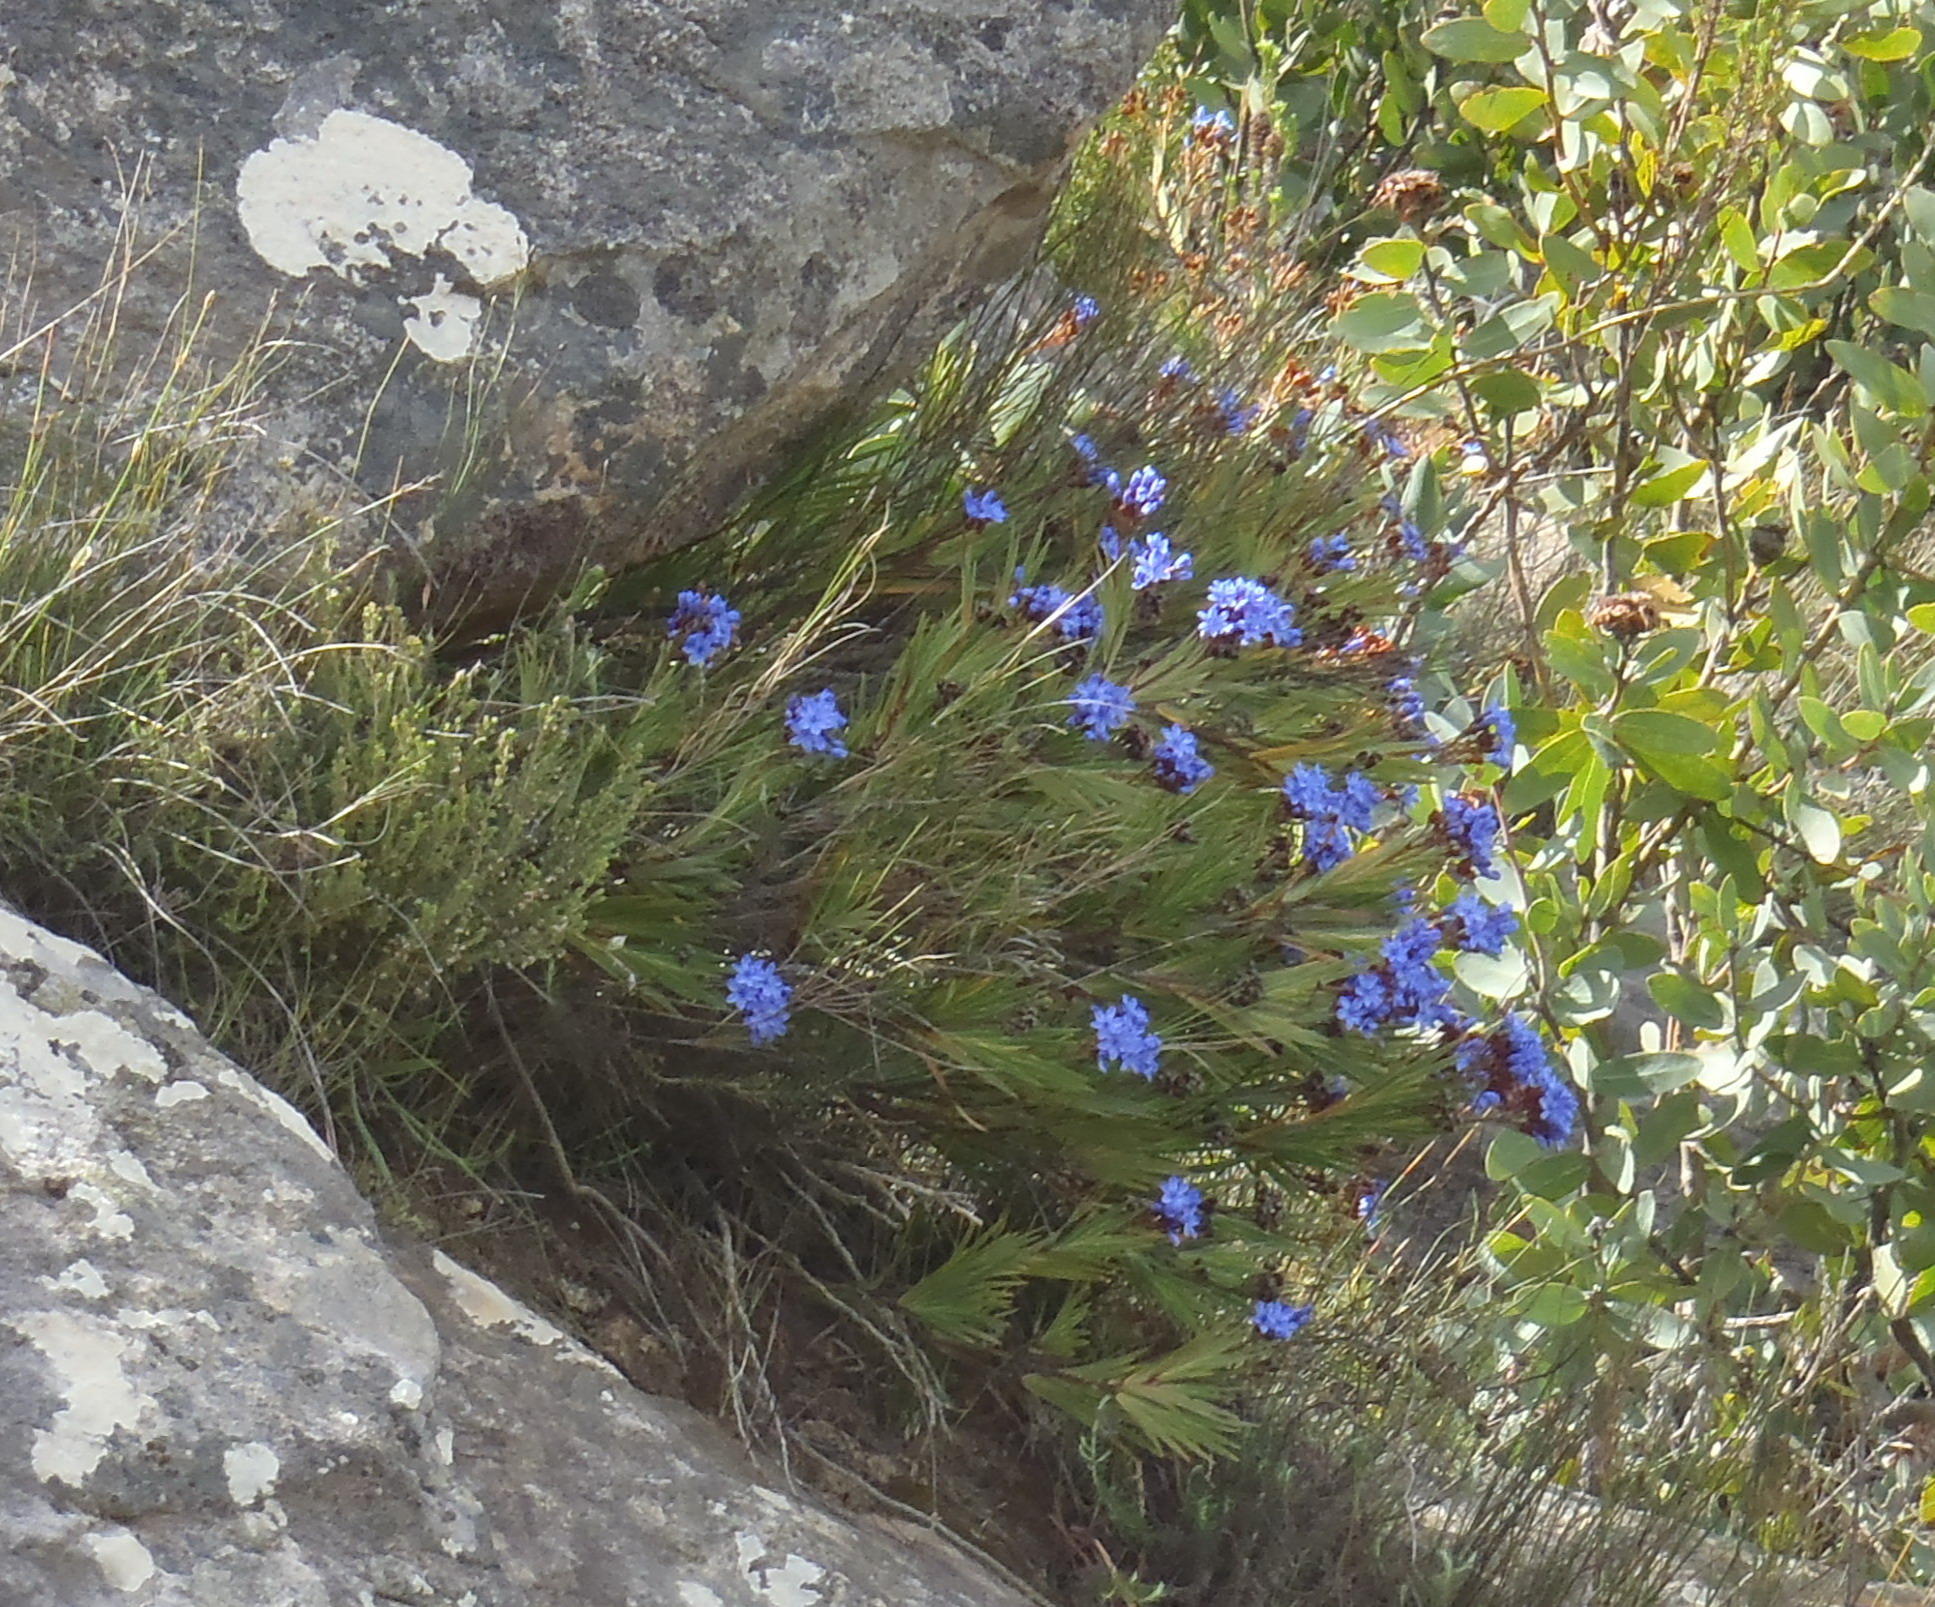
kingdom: Plantae
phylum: Tracheophyta
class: Liliopsida
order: Asparagales
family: Iridaceae
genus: Nivenia
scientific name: Nivenia binata
